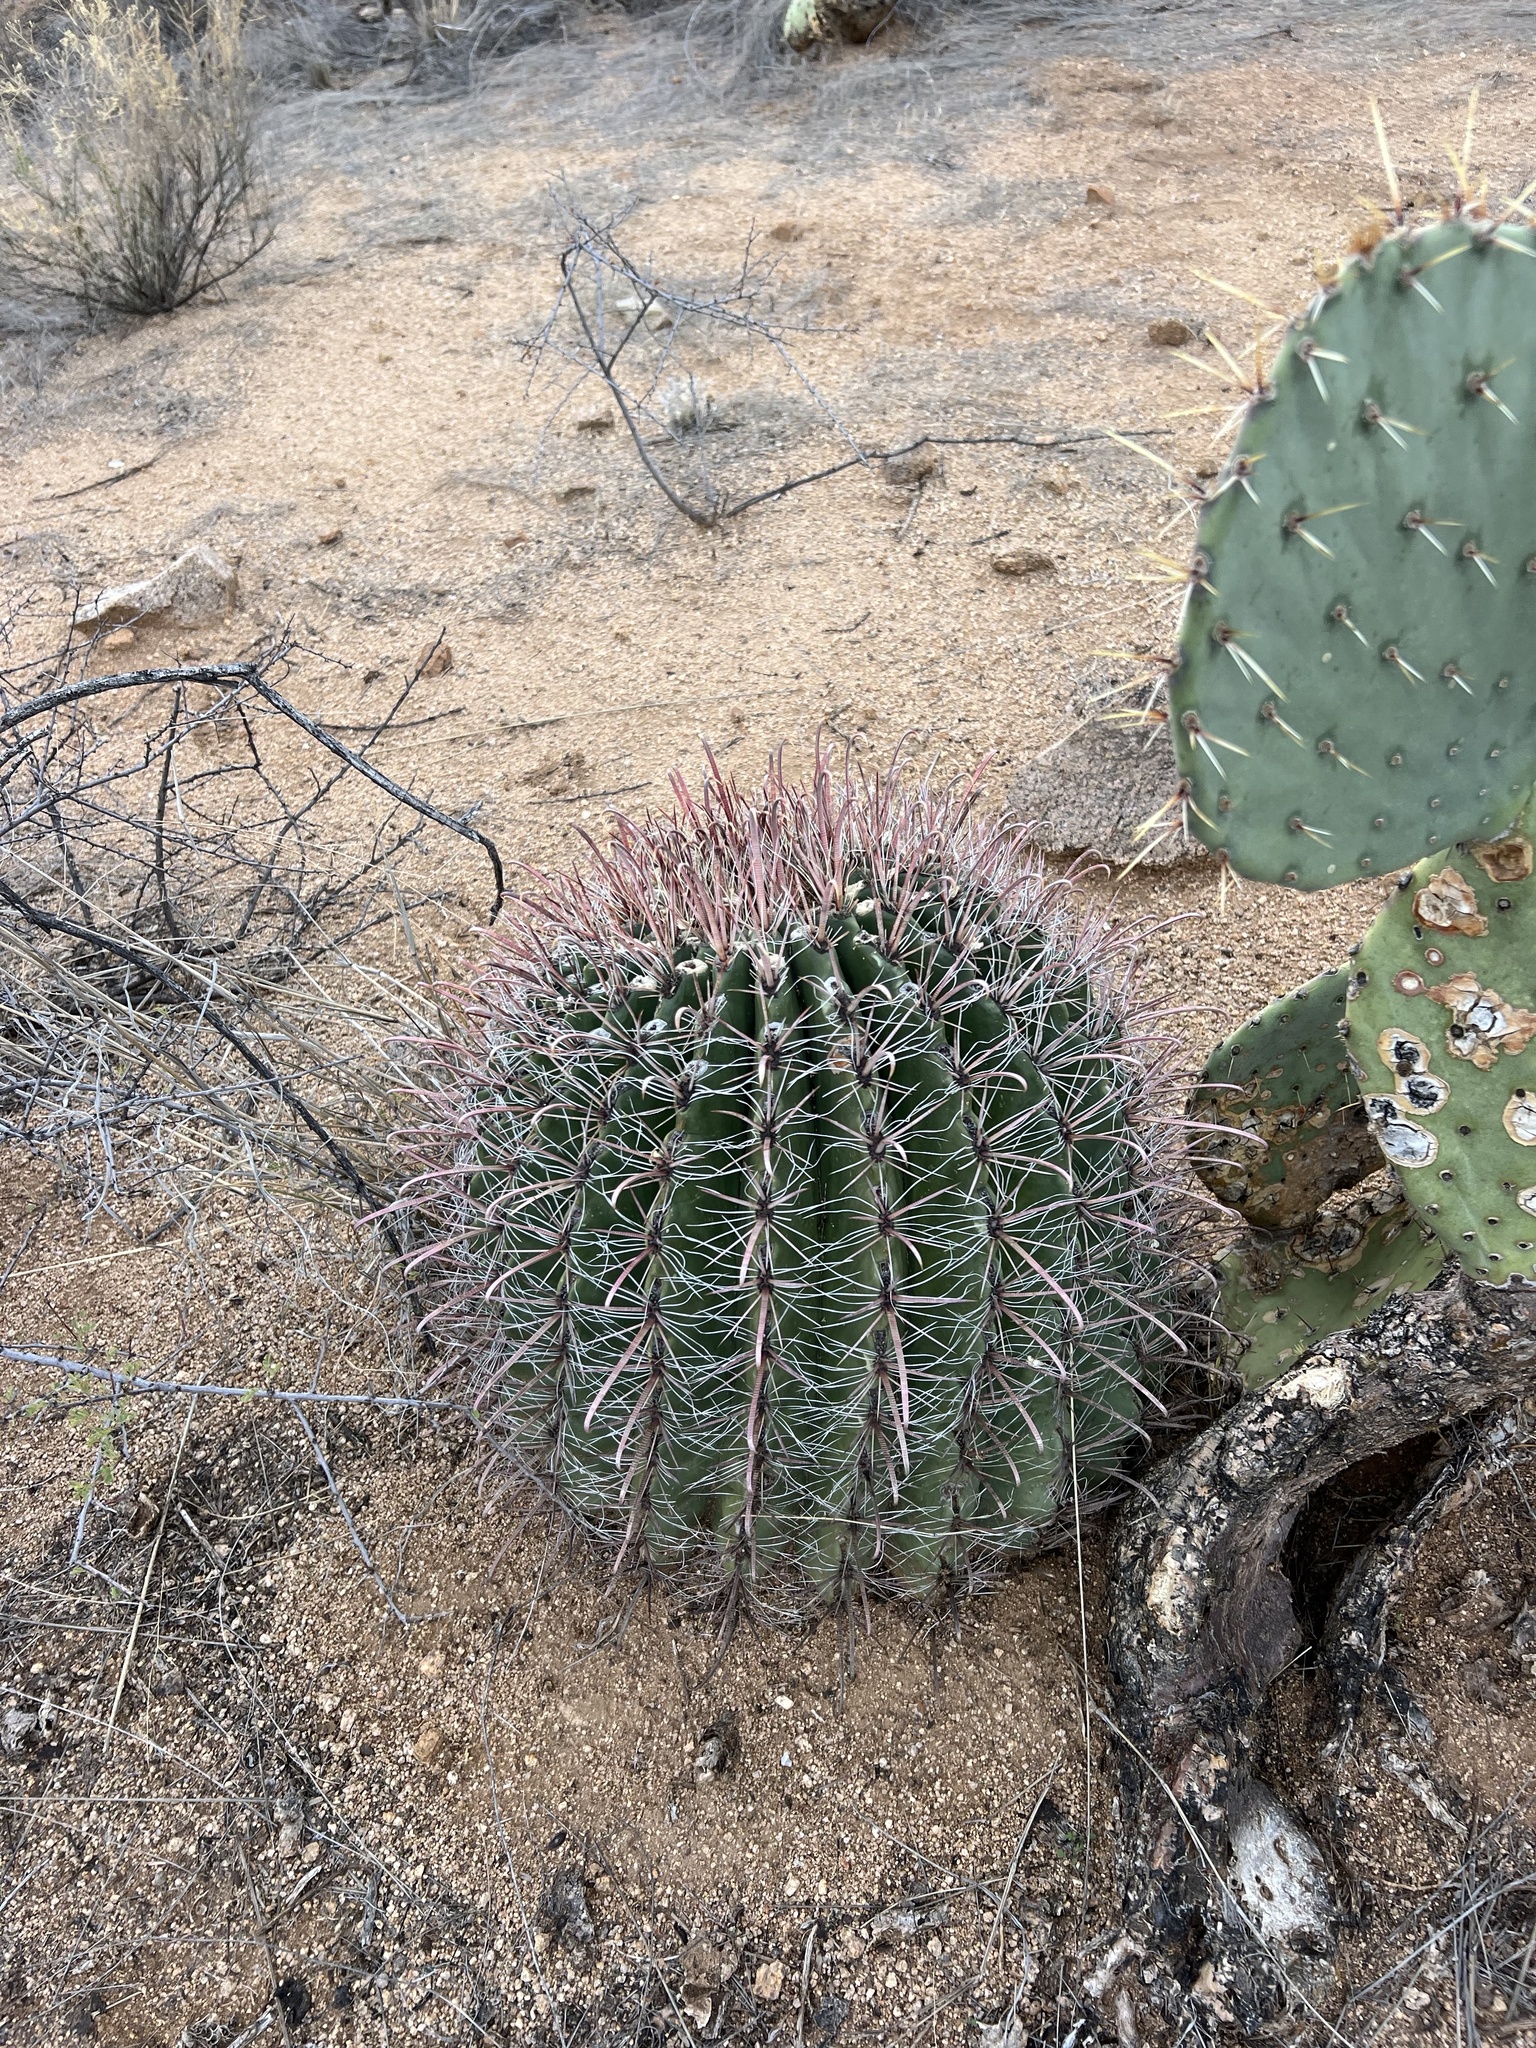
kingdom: Plantae
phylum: Tracheophyta
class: Magnoliopsida
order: Caryophyllales
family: Cactaceae
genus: Ferocactus
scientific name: Ferocactus wislizeni
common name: Candy barrel cactus
